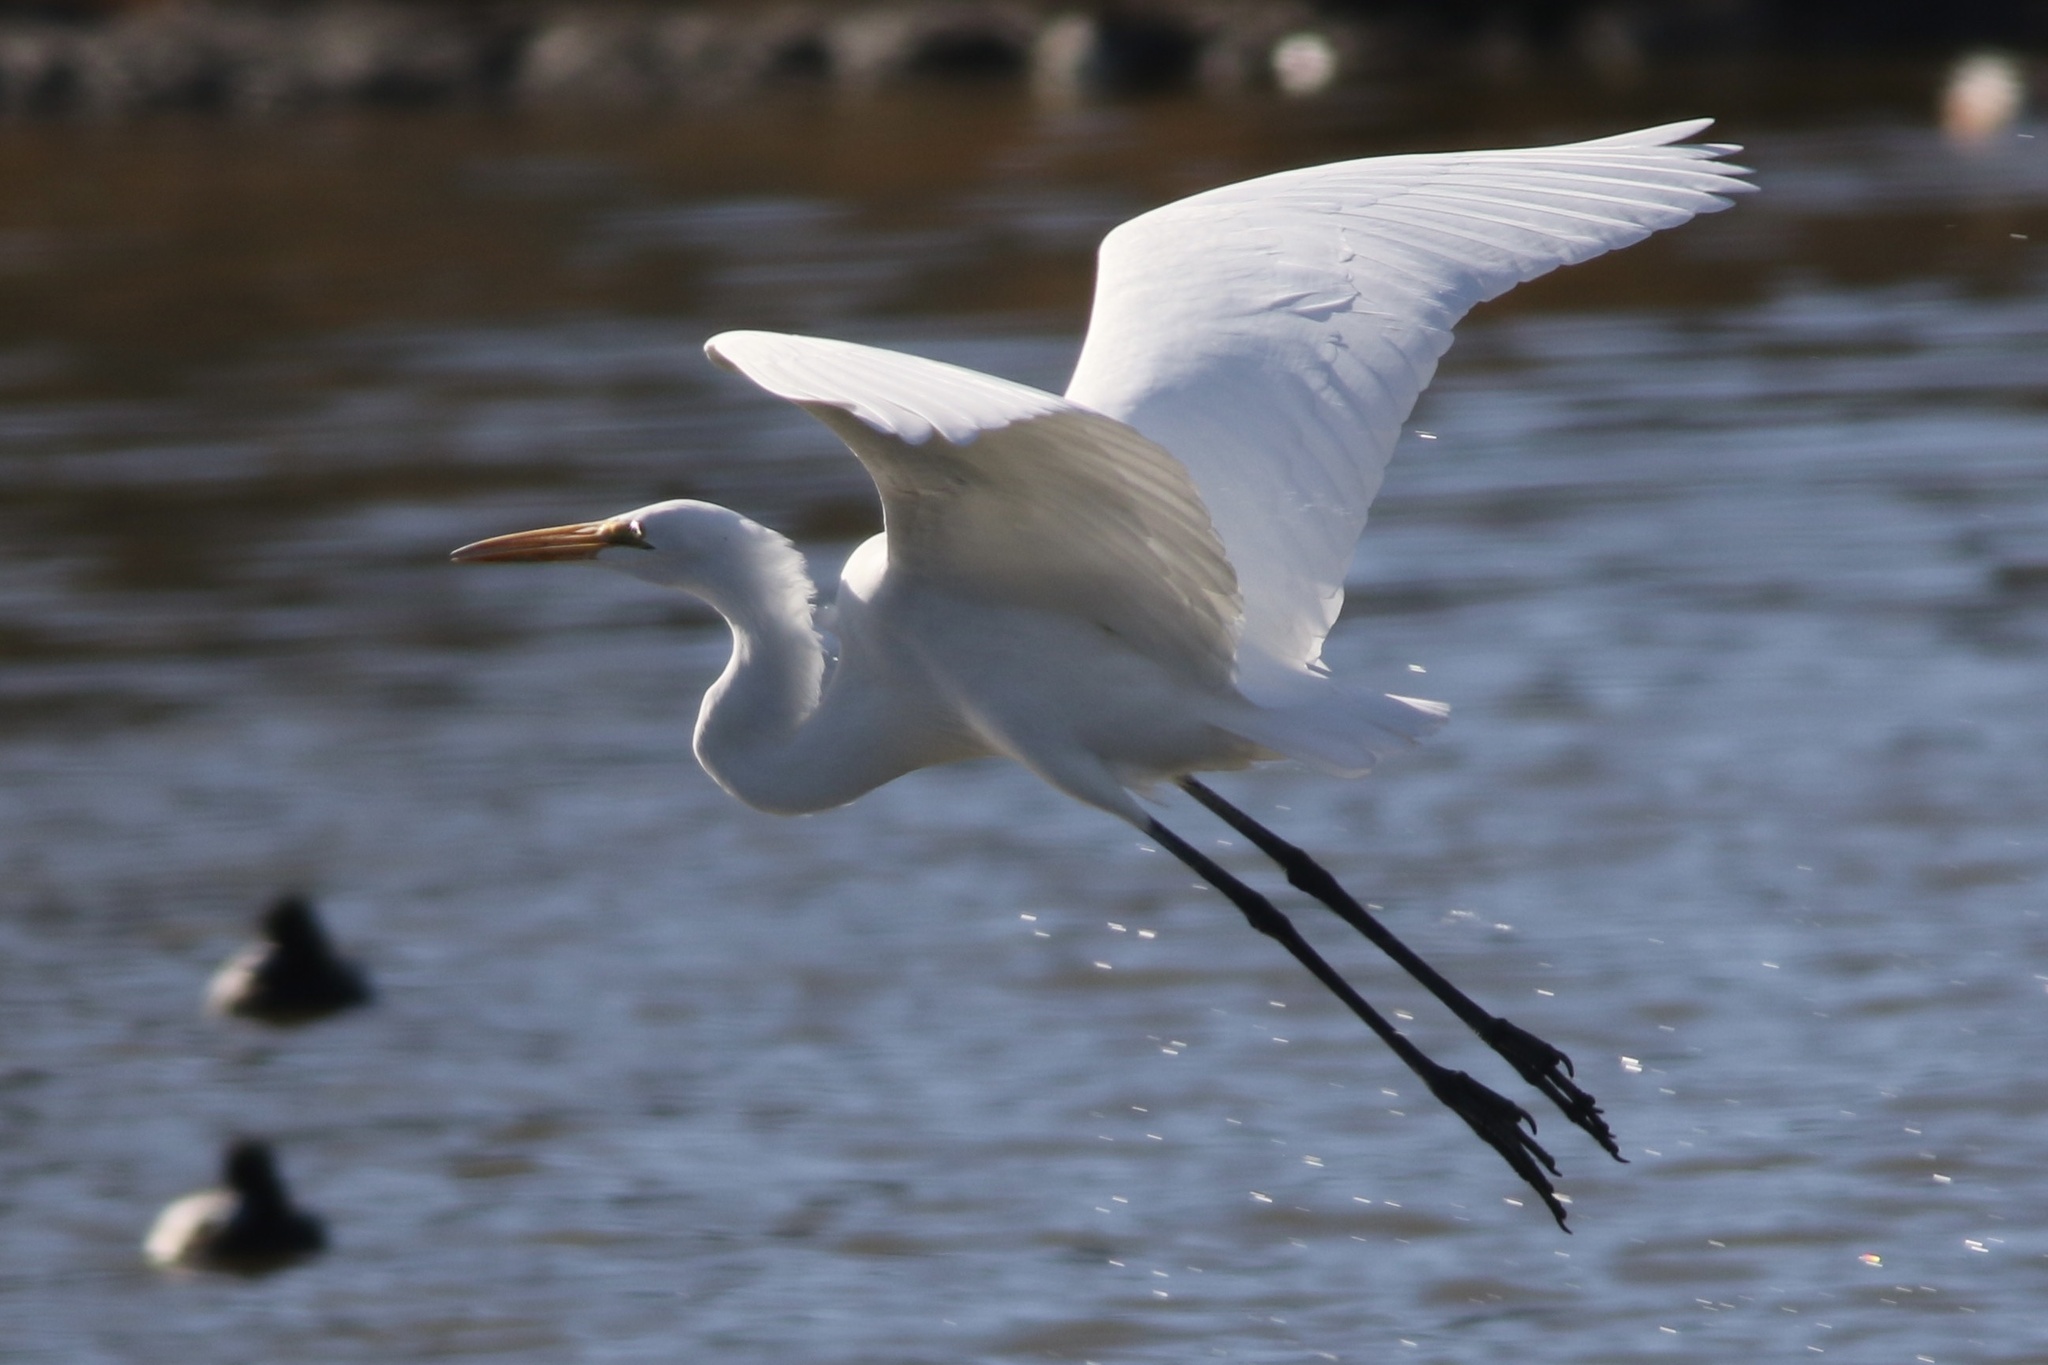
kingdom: Animalia
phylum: Chordata
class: Aves
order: Pelecaniformes
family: Ardeidae
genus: Ardea
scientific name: Ardea alba
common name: Great egret
